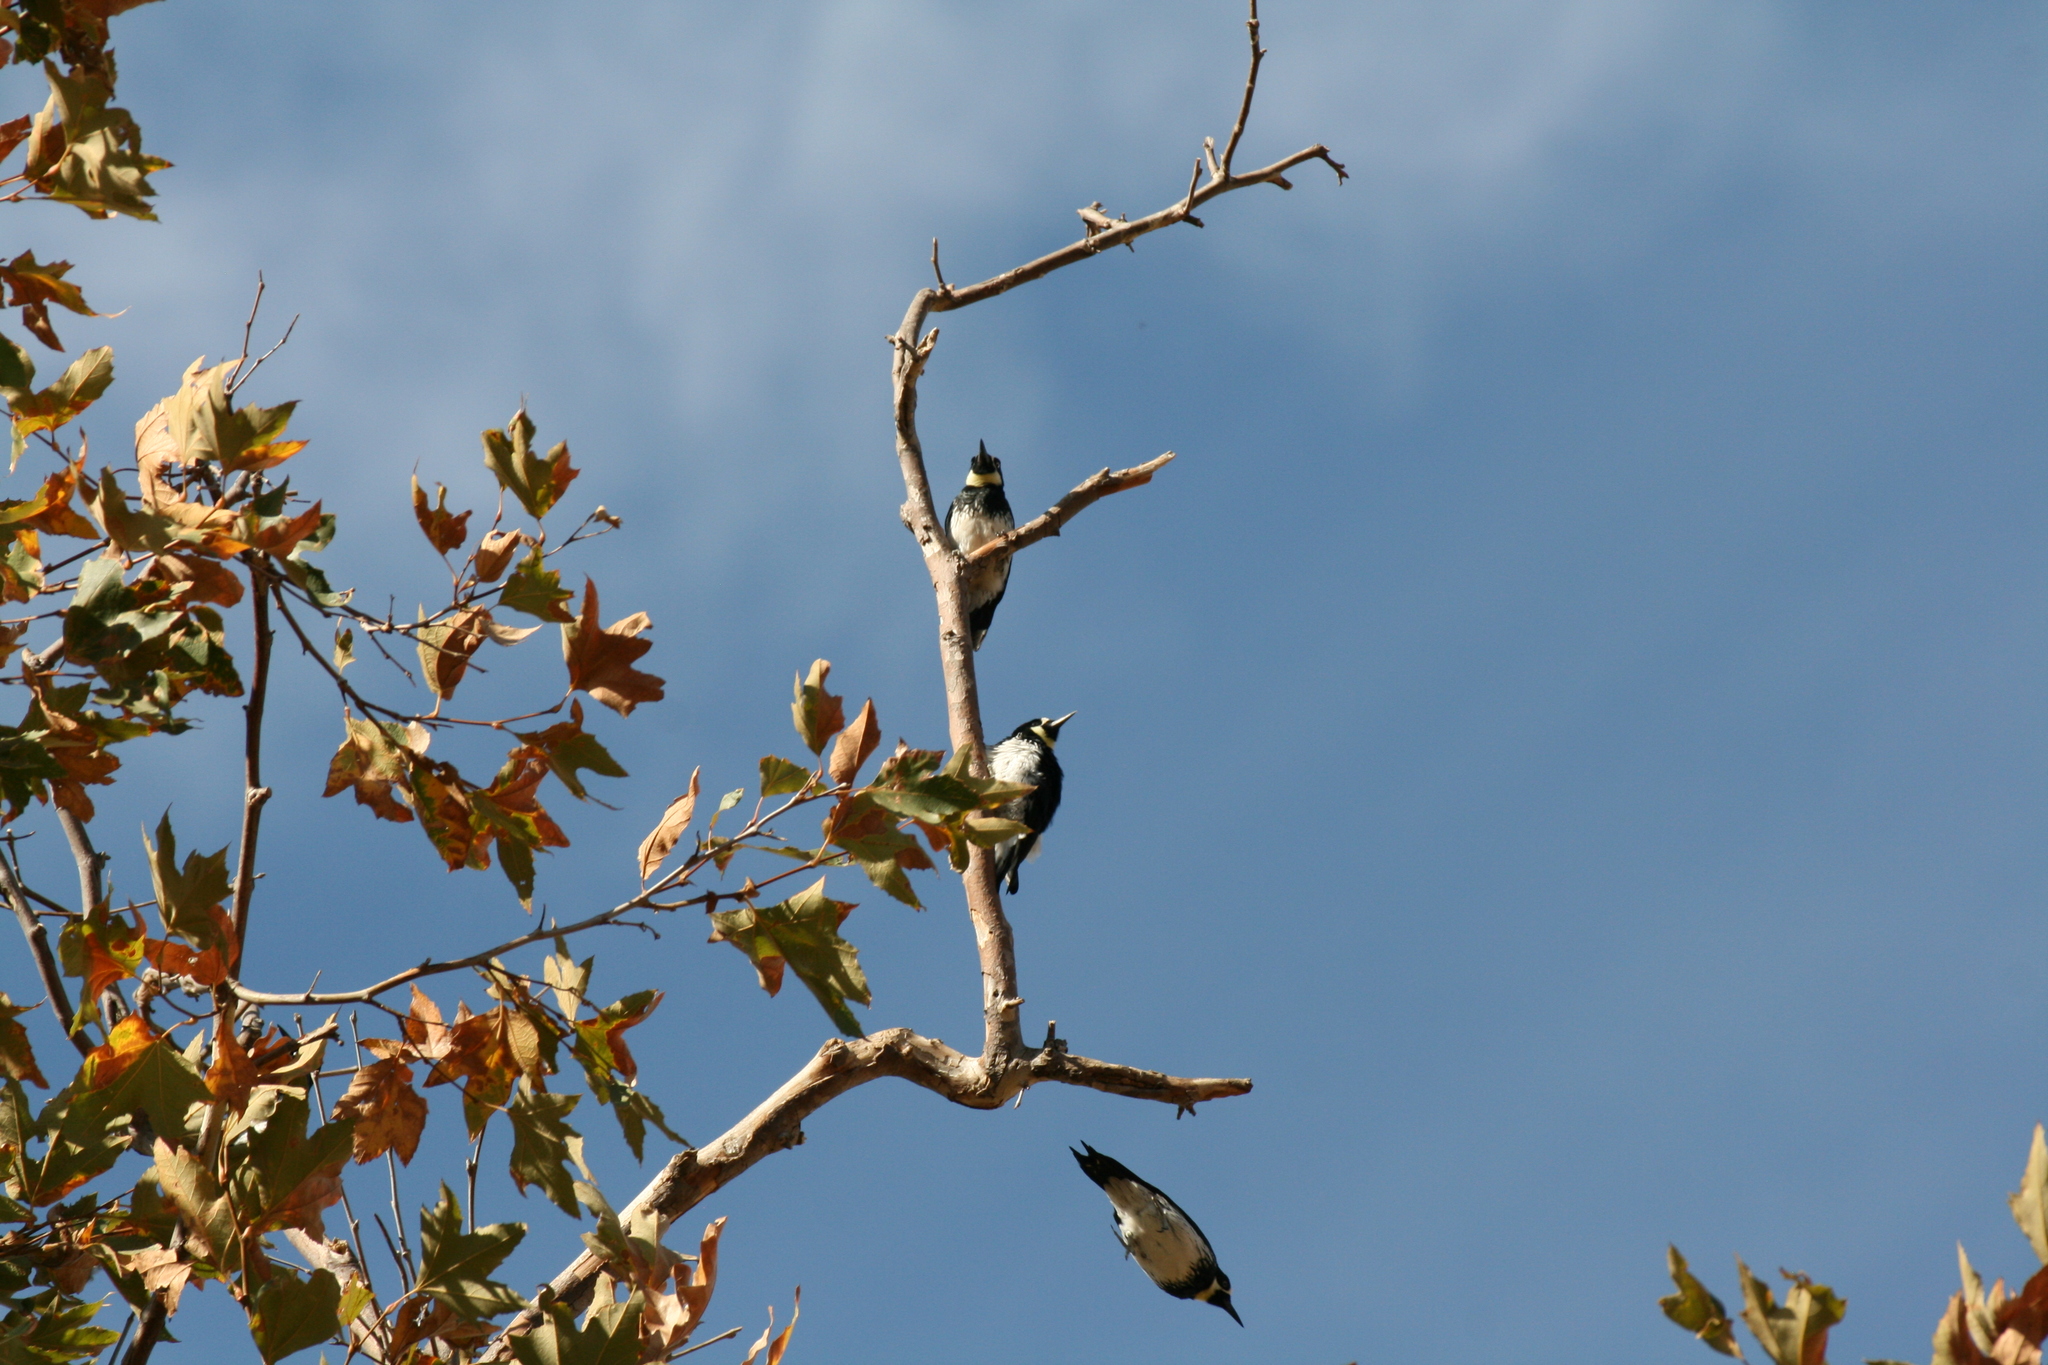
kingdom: Animalia
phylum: Chordata
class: Aves
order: Piciformes
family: Picidae
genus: Melanerpes
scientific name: Melanerpes formicivorus
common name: Acorn woodpecker
